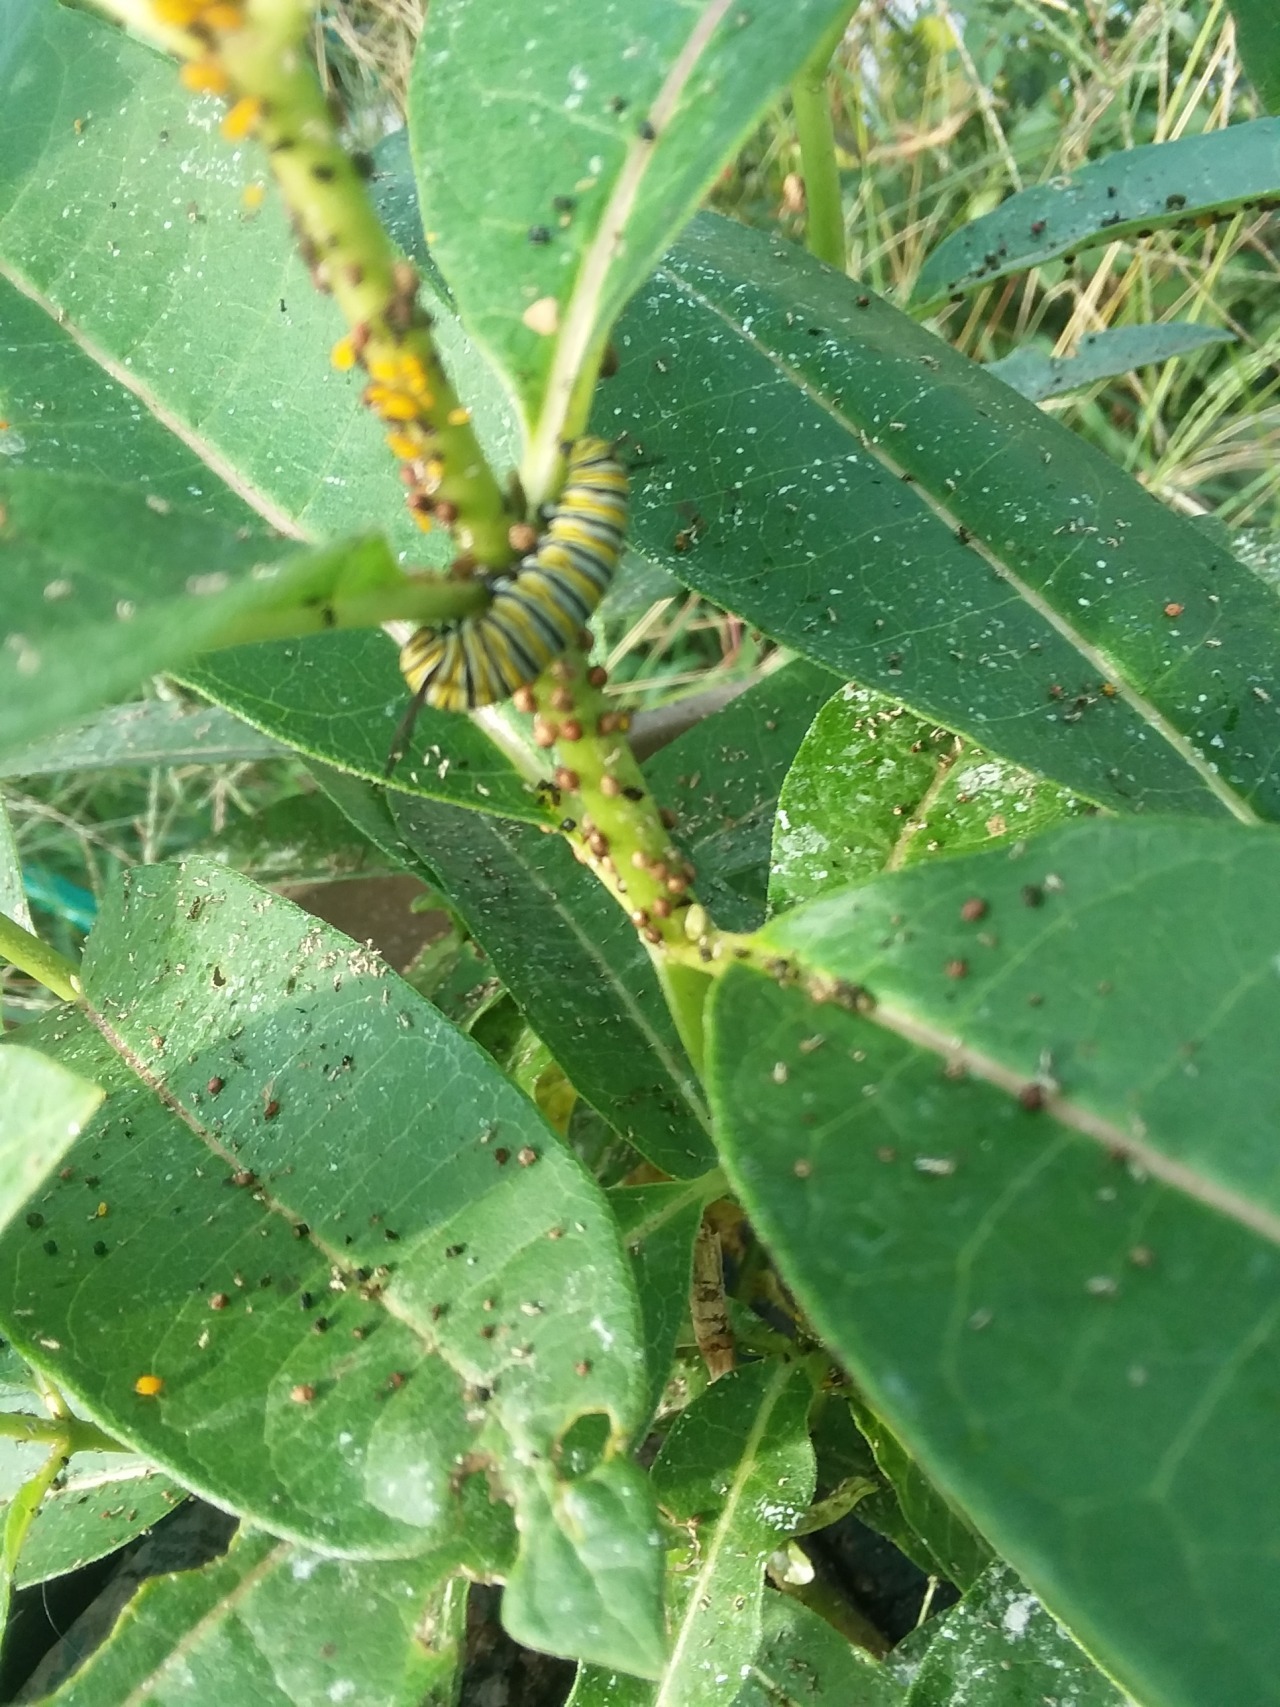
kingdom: Animalia
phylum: Arthropoda
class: Insecta
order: Lepidoptera
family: Nymphalidae
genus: Danaus
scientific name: Danaus plexippus
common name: Monarch
